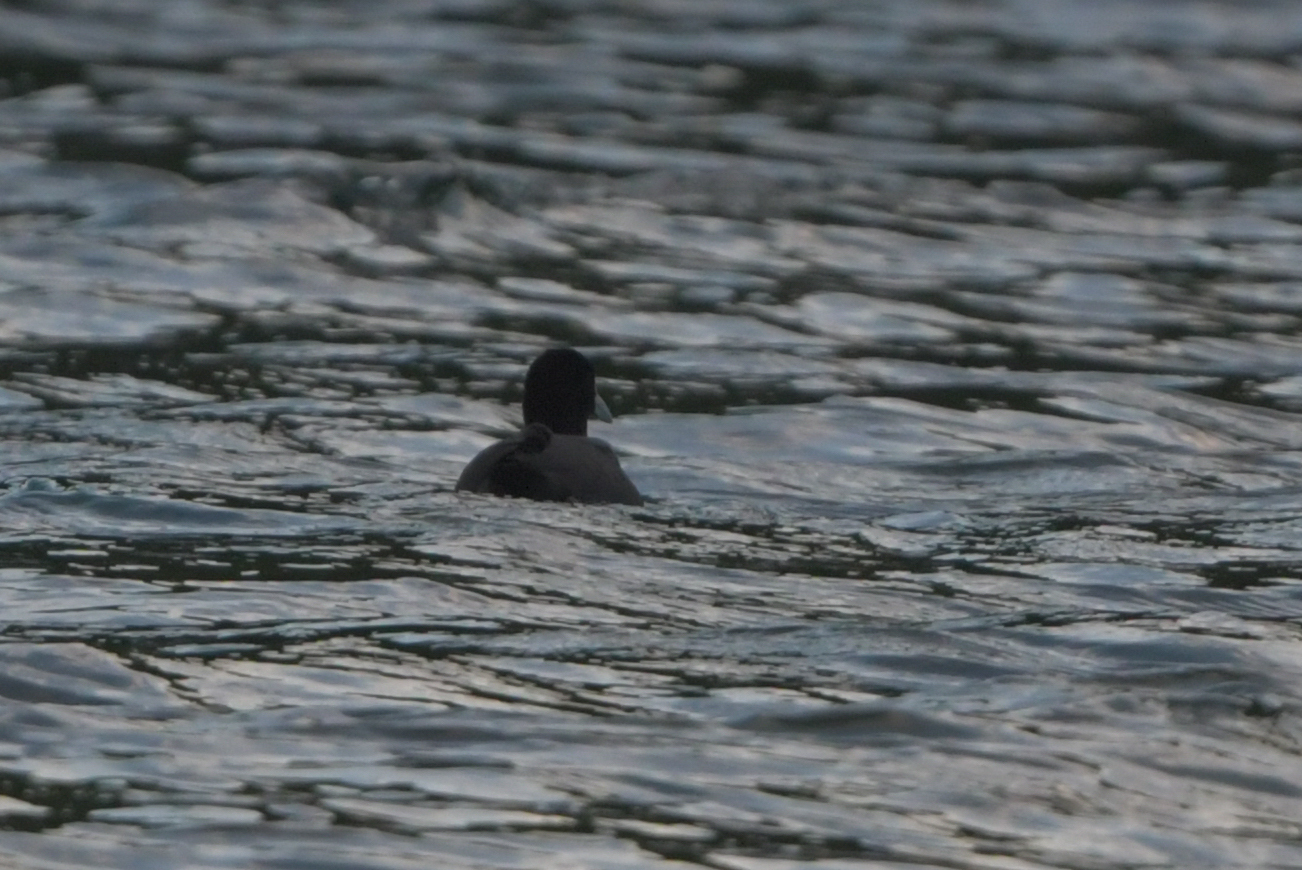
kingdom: Animalia
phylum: Chordata
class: Aves
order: Gruiformes
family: Rallidae
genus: Fulica
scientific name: Fulica atra
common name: Eurasian coot
